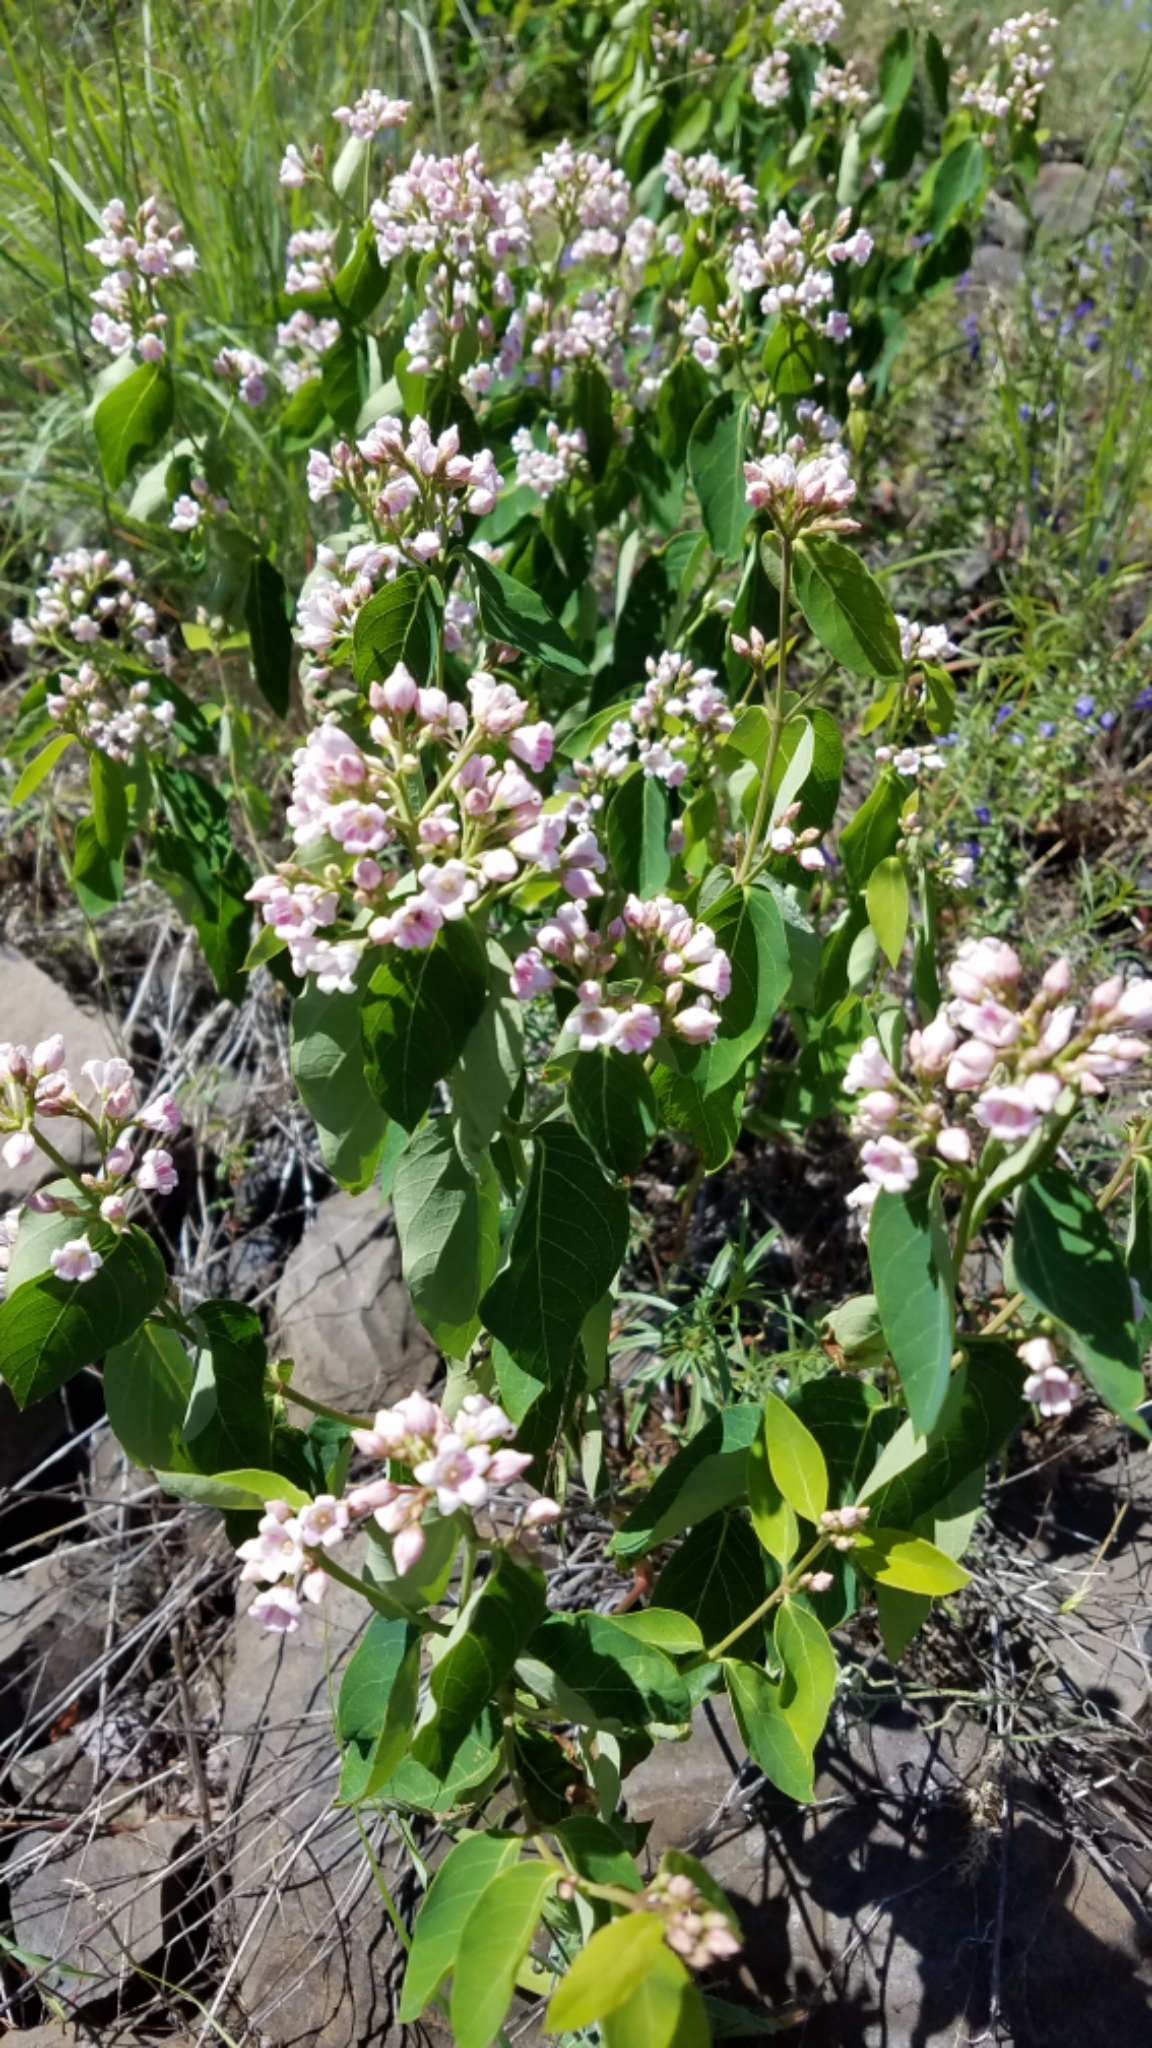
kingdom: Plantae
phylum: Tracheophyta
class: Magnoliopsida
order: Gentianales
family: Apocynaceae
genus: Apocynum
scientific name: Apocynum androsaemifolium
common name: Spreading dogbane
